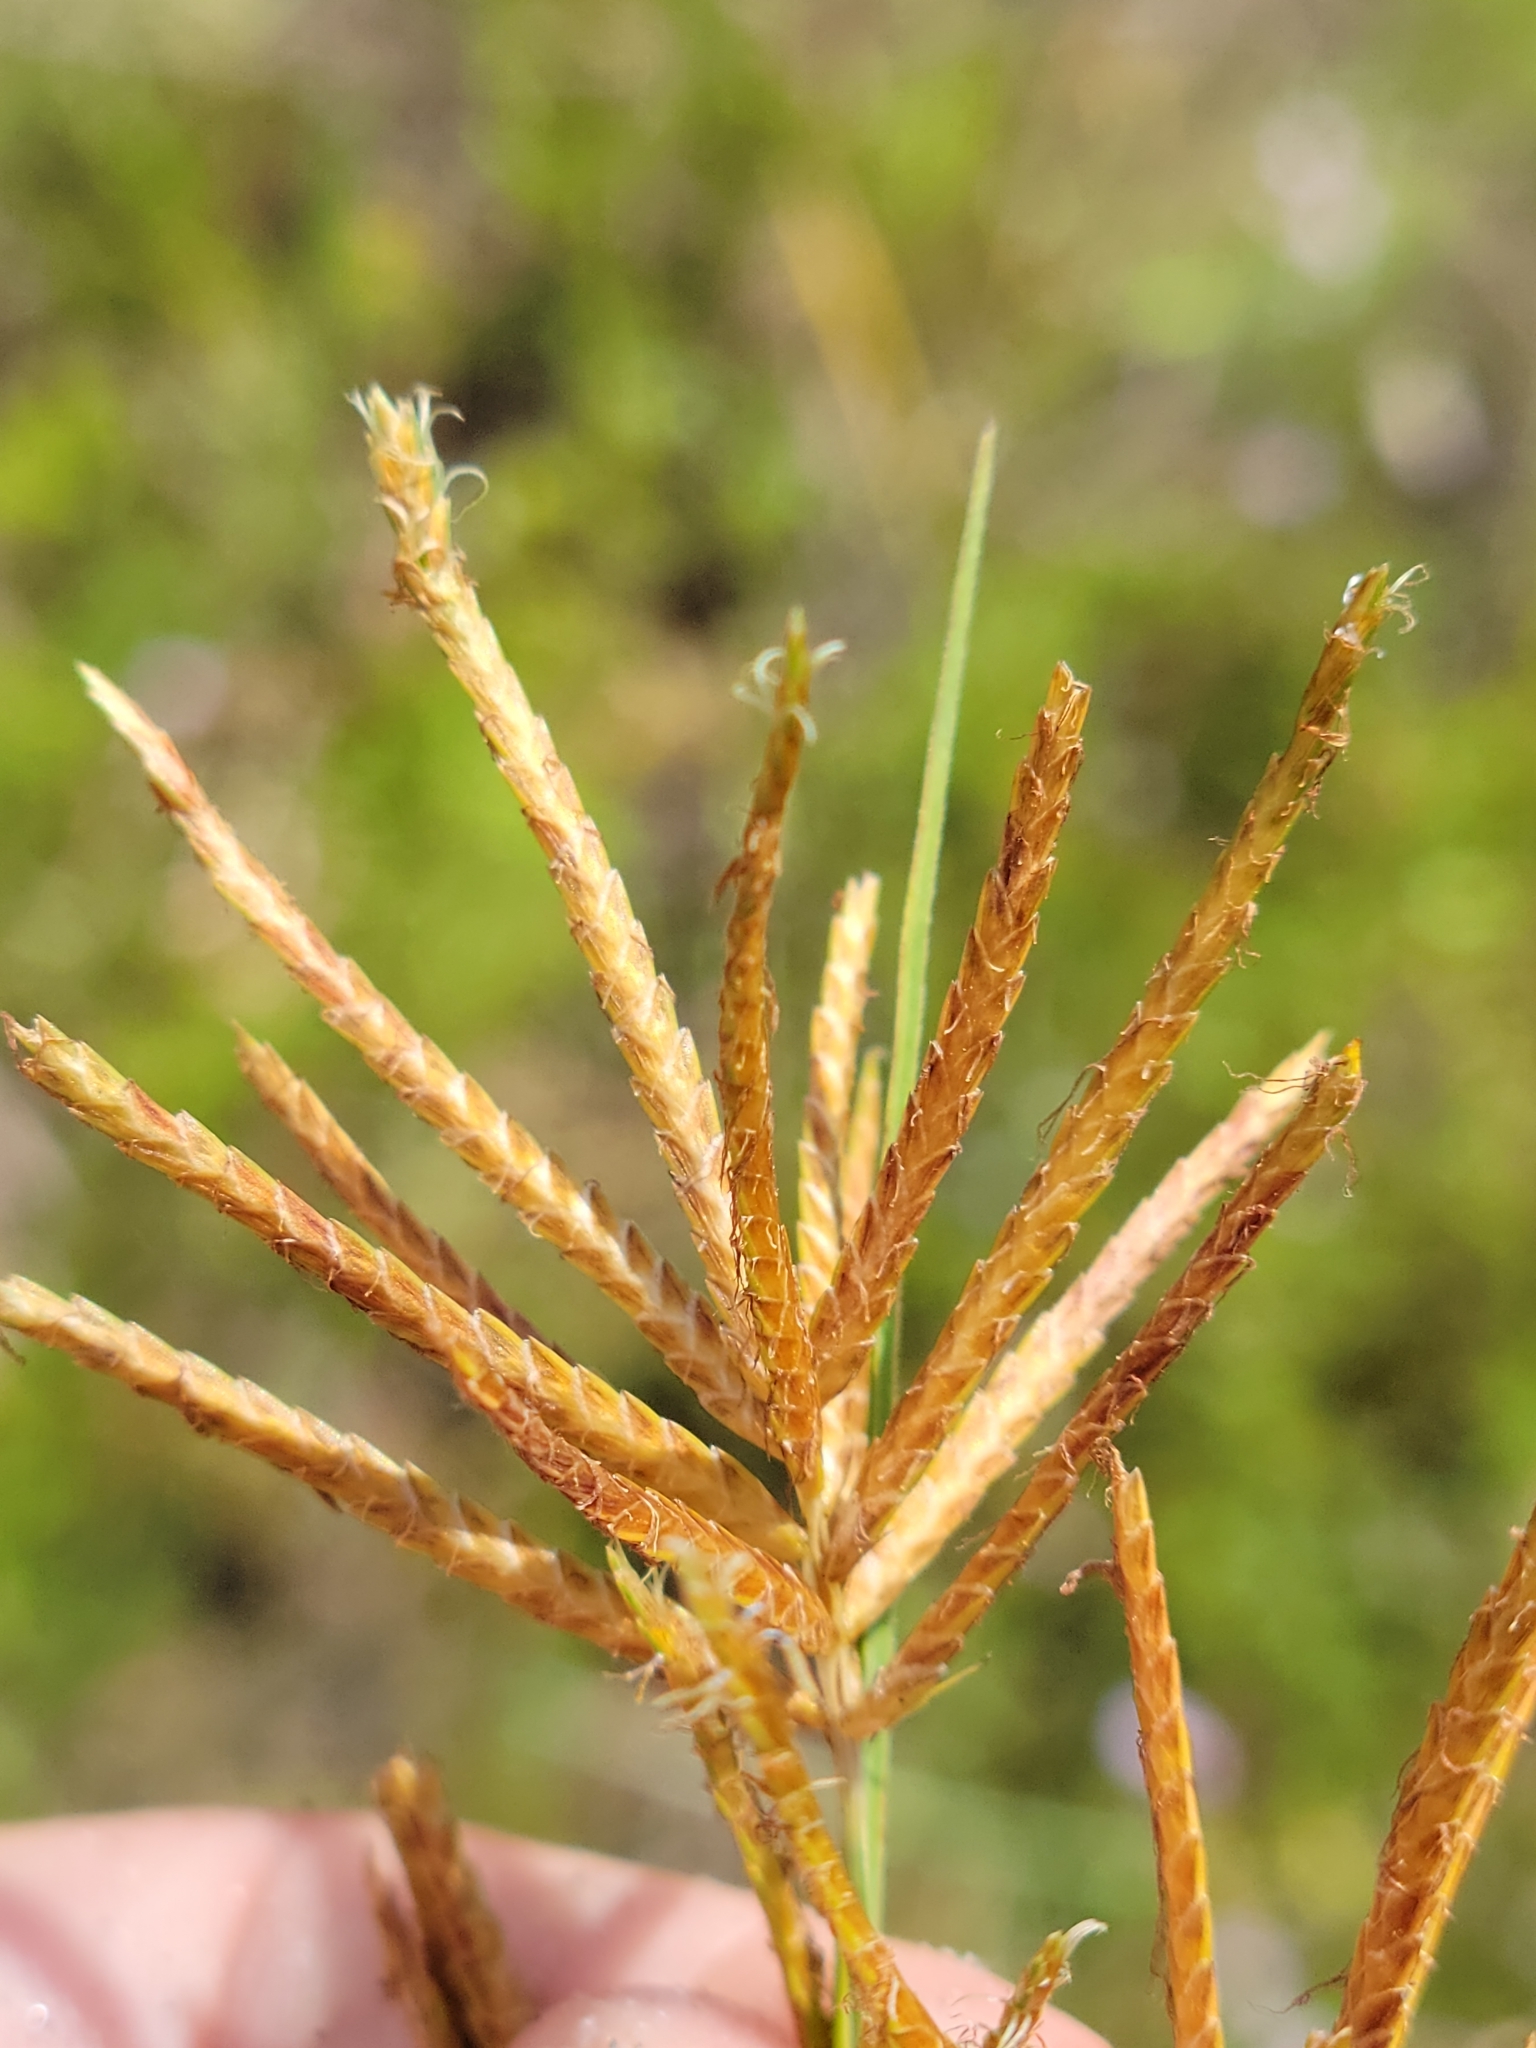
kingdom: Plantae
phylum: Tracheophyta
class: Liliopsida
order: Poales
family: Cyperaceae
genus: Cyperus
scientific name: Cyperus esculentus
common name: Yellow nutsedge
